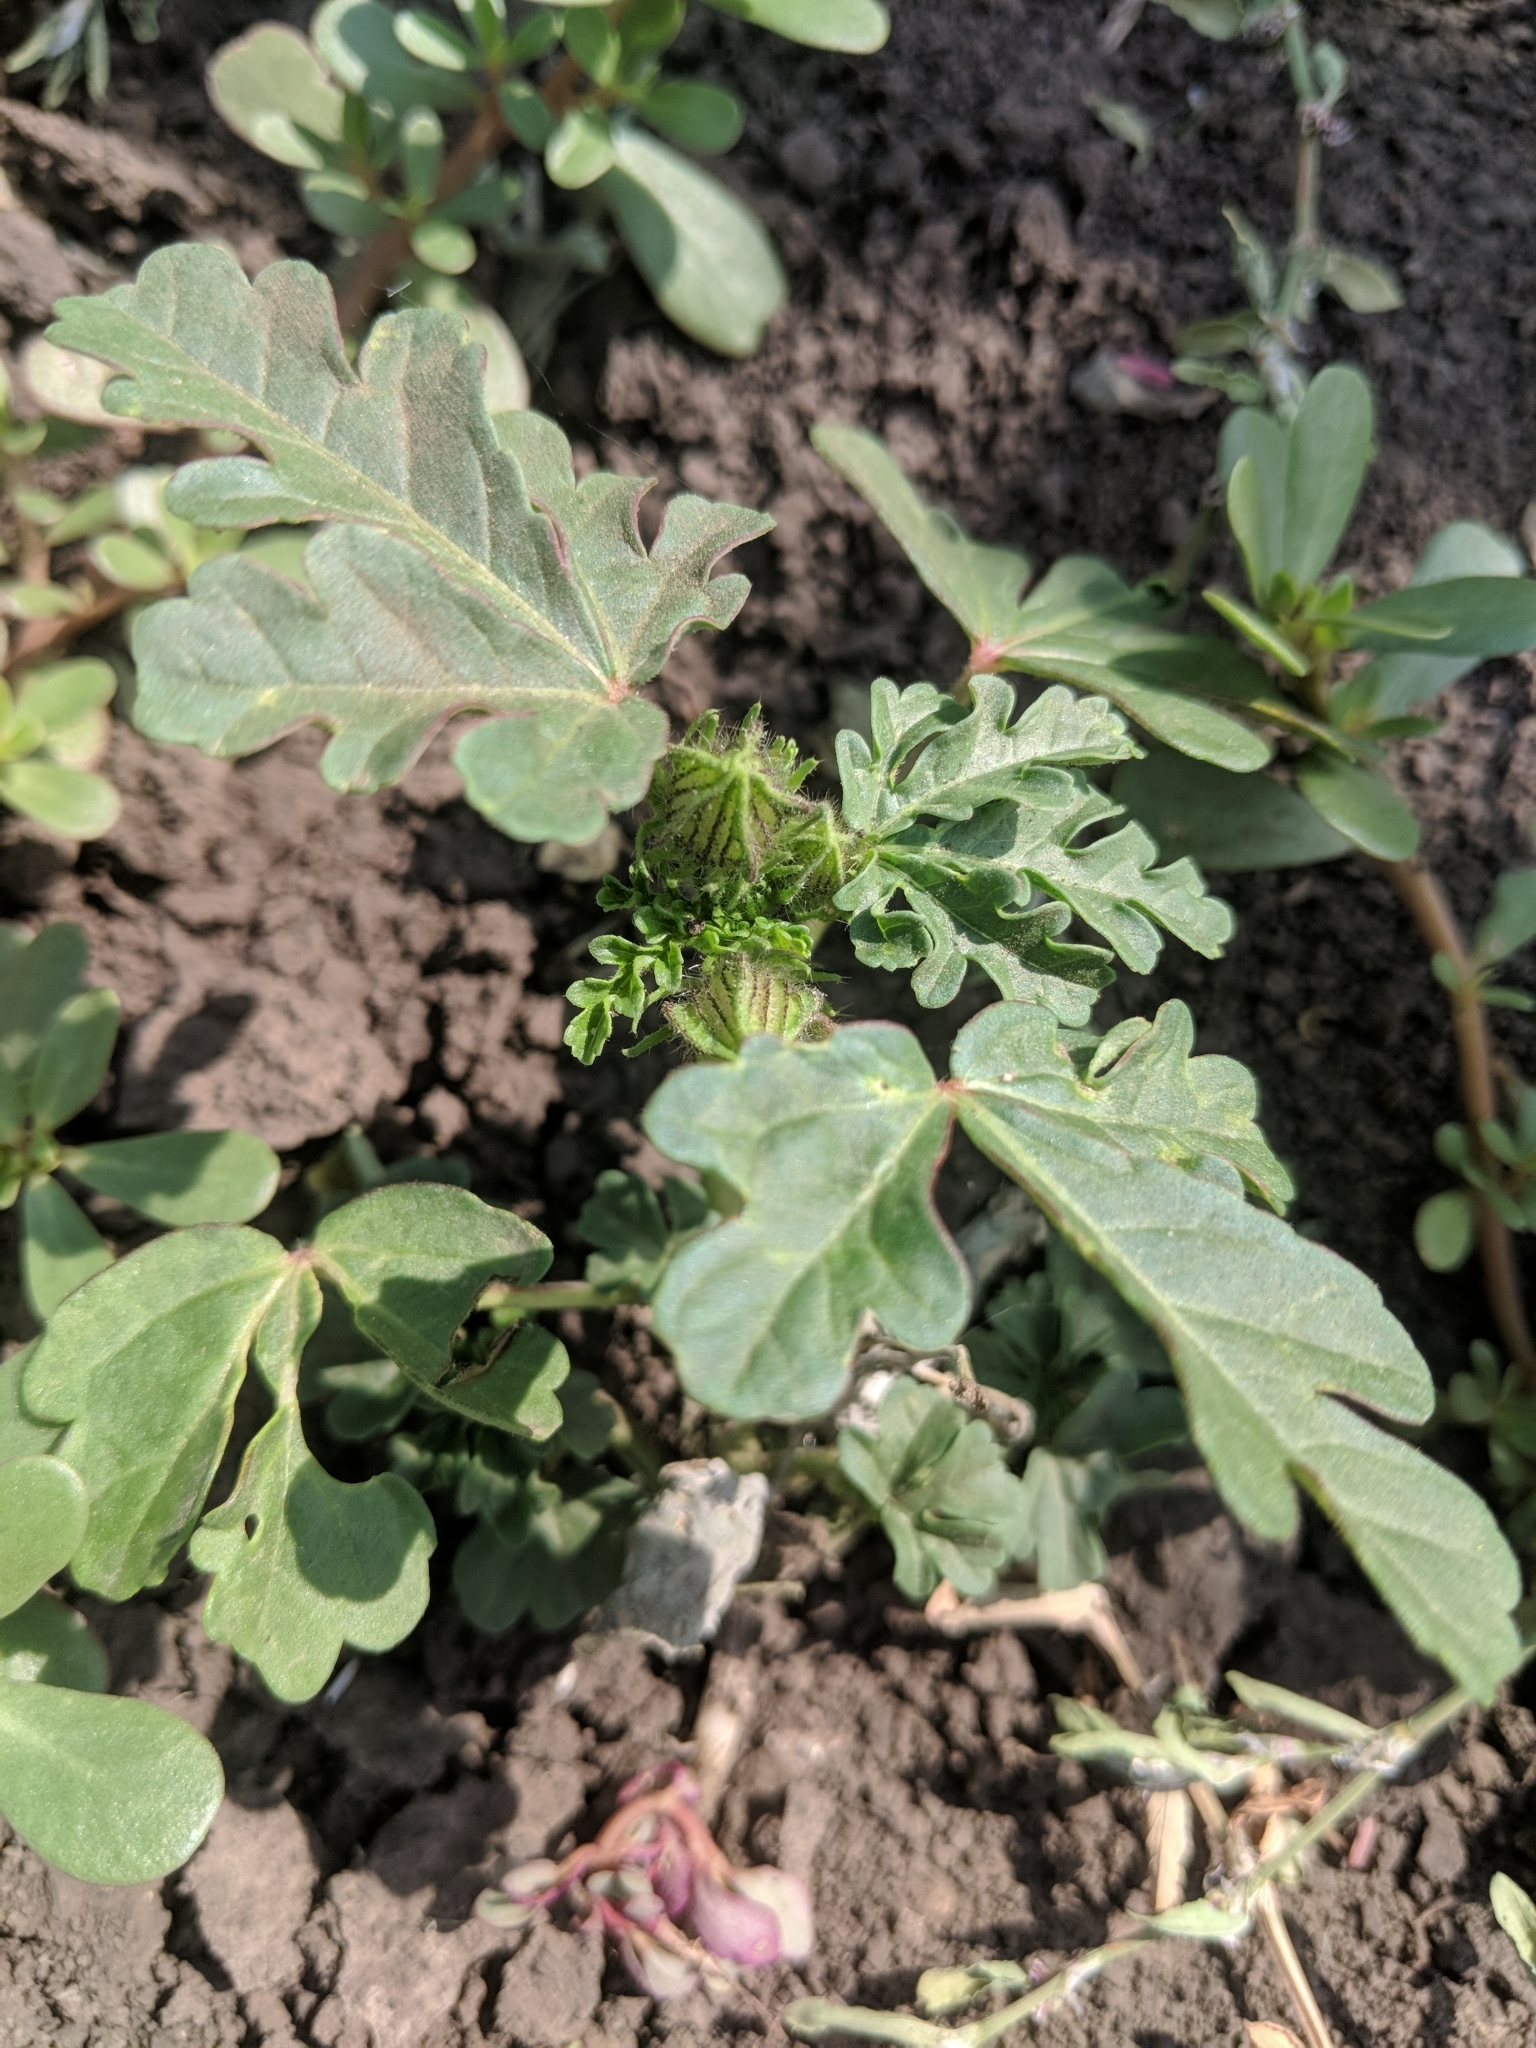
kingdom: Plantae
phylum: Tracheophyta
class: Magnoliopsida
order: Malvales
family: Malvaceae
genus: Hibiscus
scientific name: Hibiscus trionum
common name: Bladder ketmia
